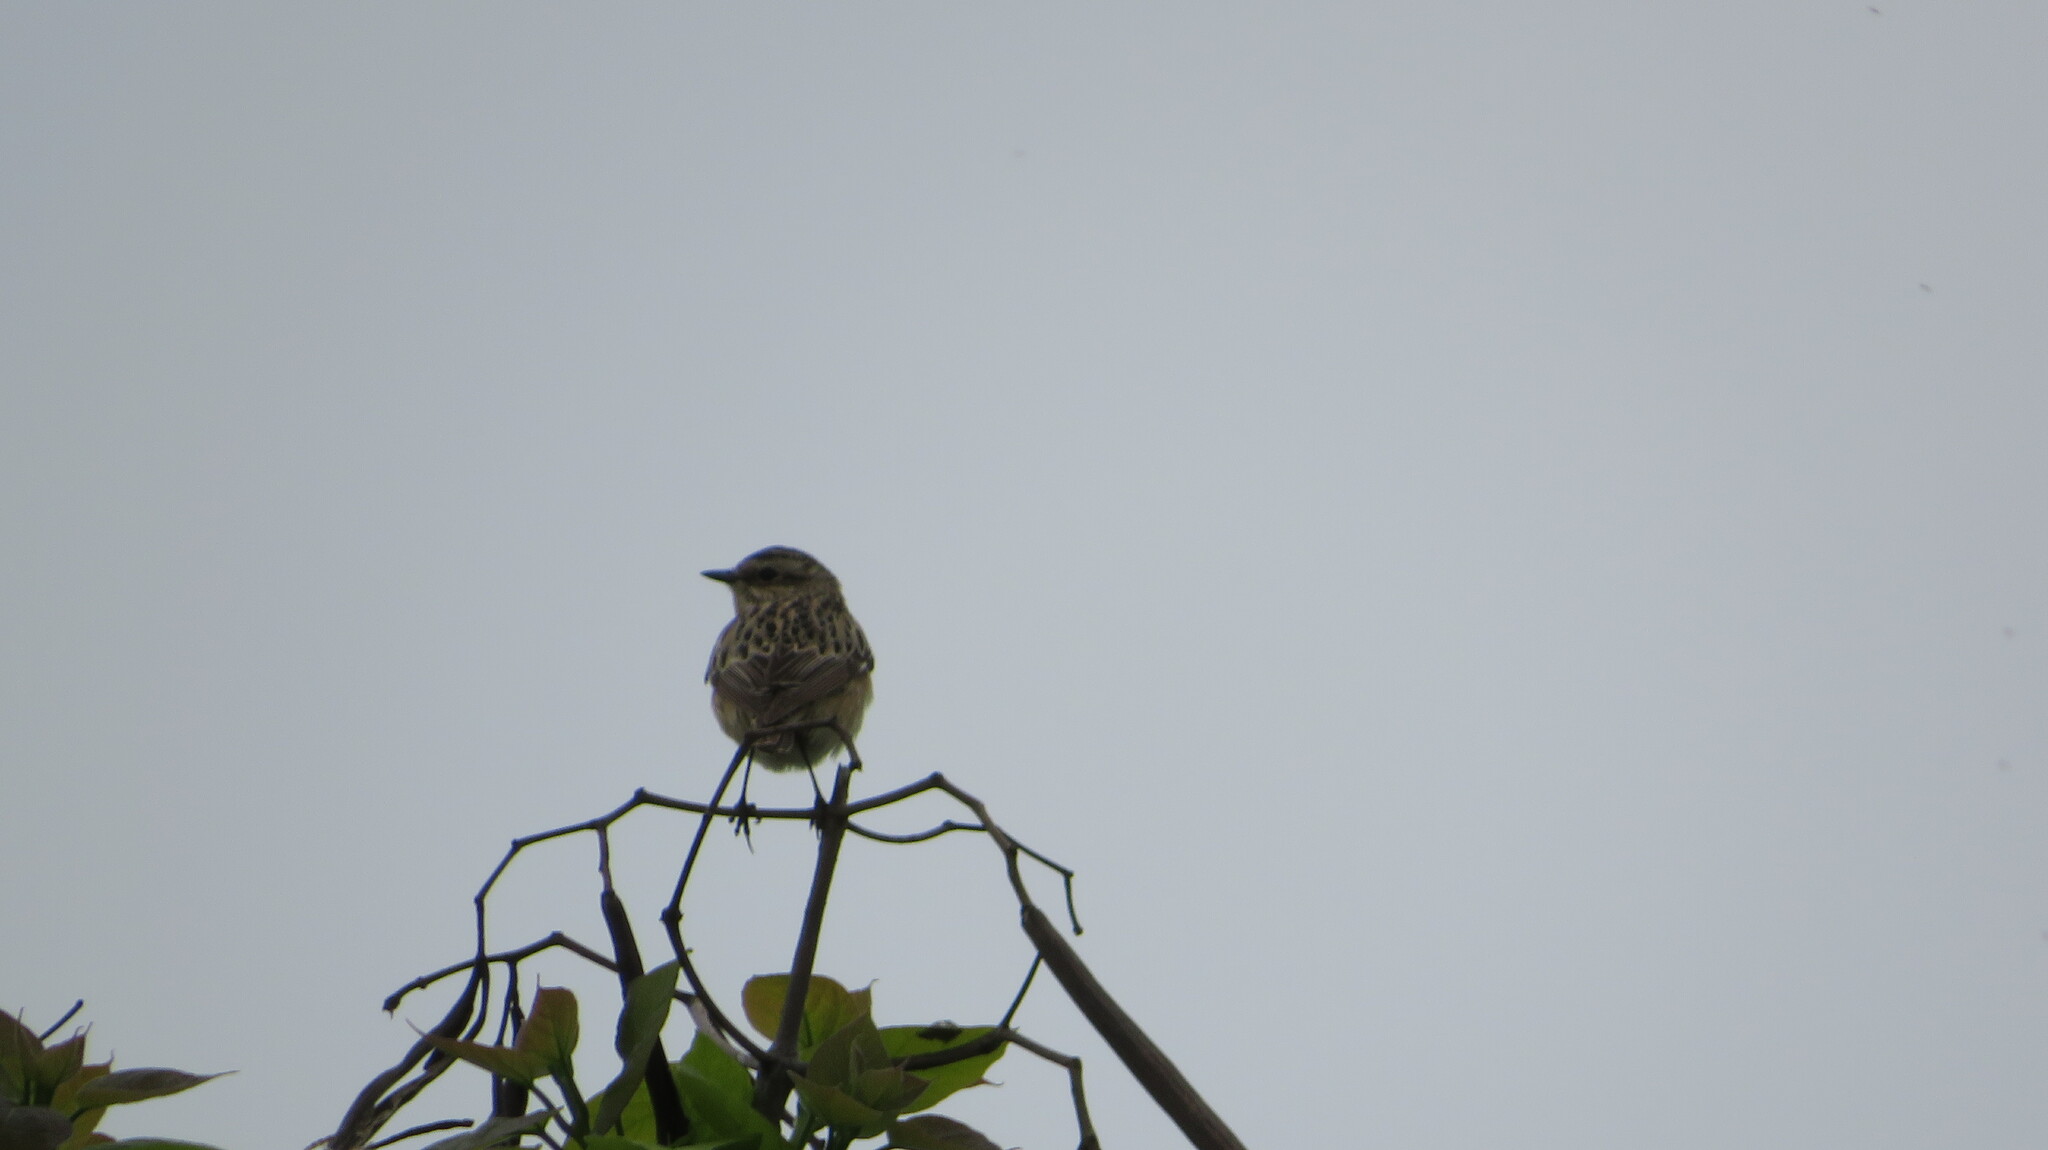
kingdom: Animalia
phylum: Chordata
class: Aves
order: Passeriformes
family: Muscicapidae
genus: Saxicola
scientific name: Saxicola rubetra
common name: Whinchat
